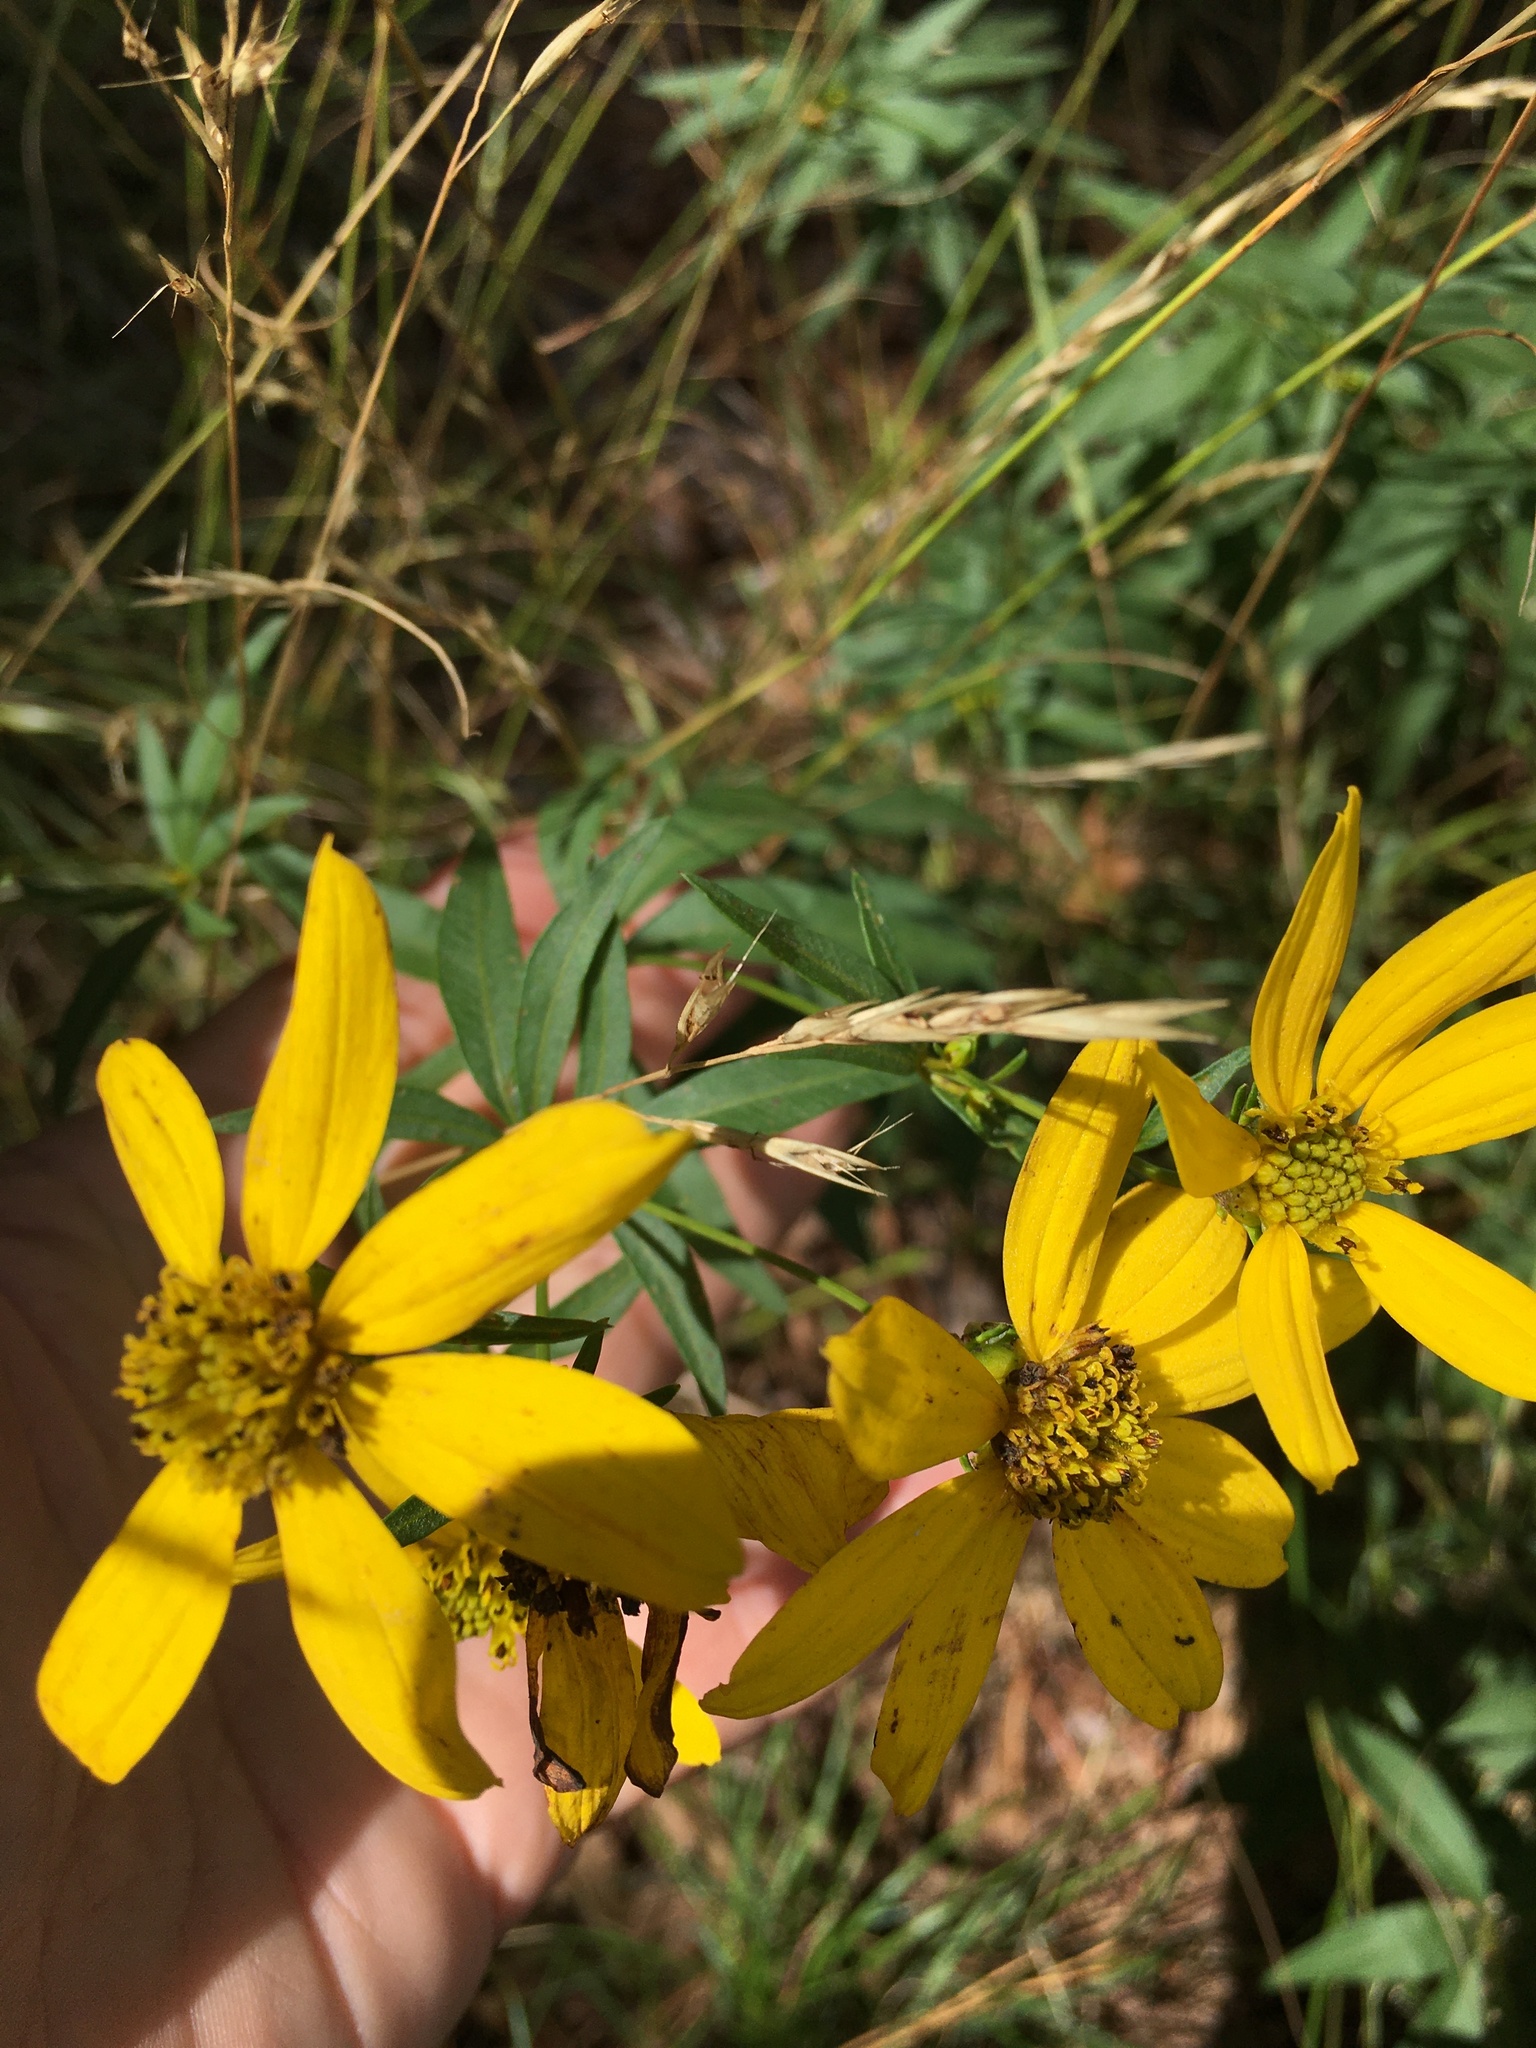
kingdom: Plantae
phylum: Tracheophyta
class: Magnoliopsida
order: Asterales
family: Asteraceae
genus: Coreopsis
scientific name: Coreopsis major
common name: Forest tickseed
